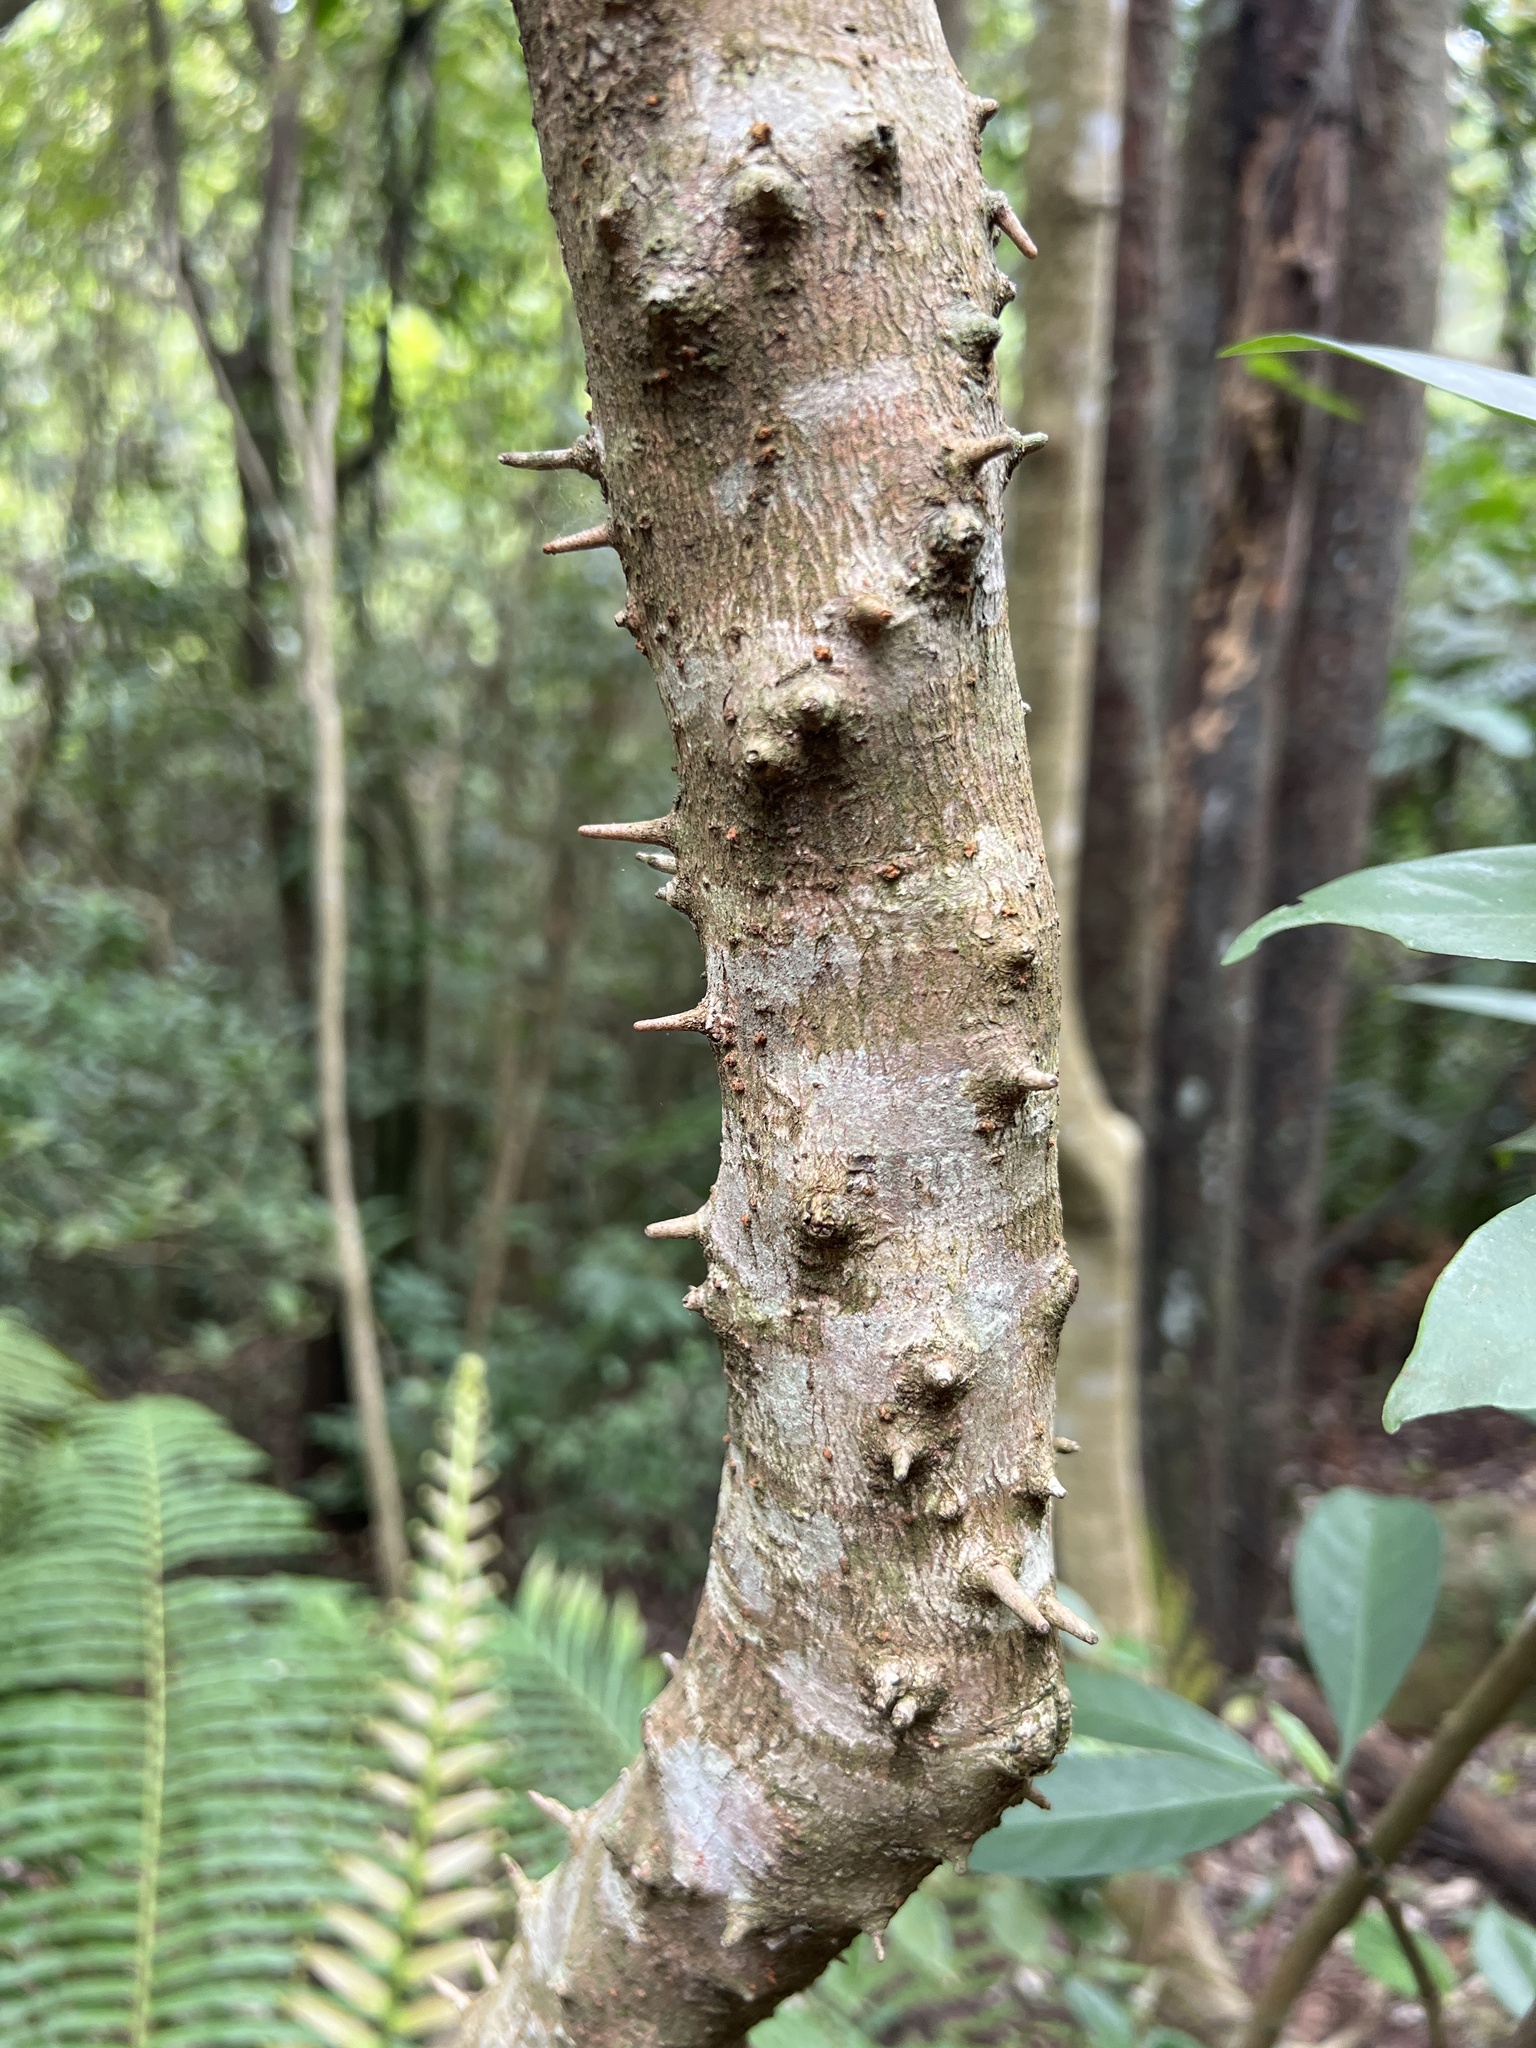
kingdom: Plantae
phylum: Tracheophyta
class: Magnoliopsida
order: Malpighiales
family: Phyllanthaceae
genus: Bridelia
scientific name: Bridelia balansae
